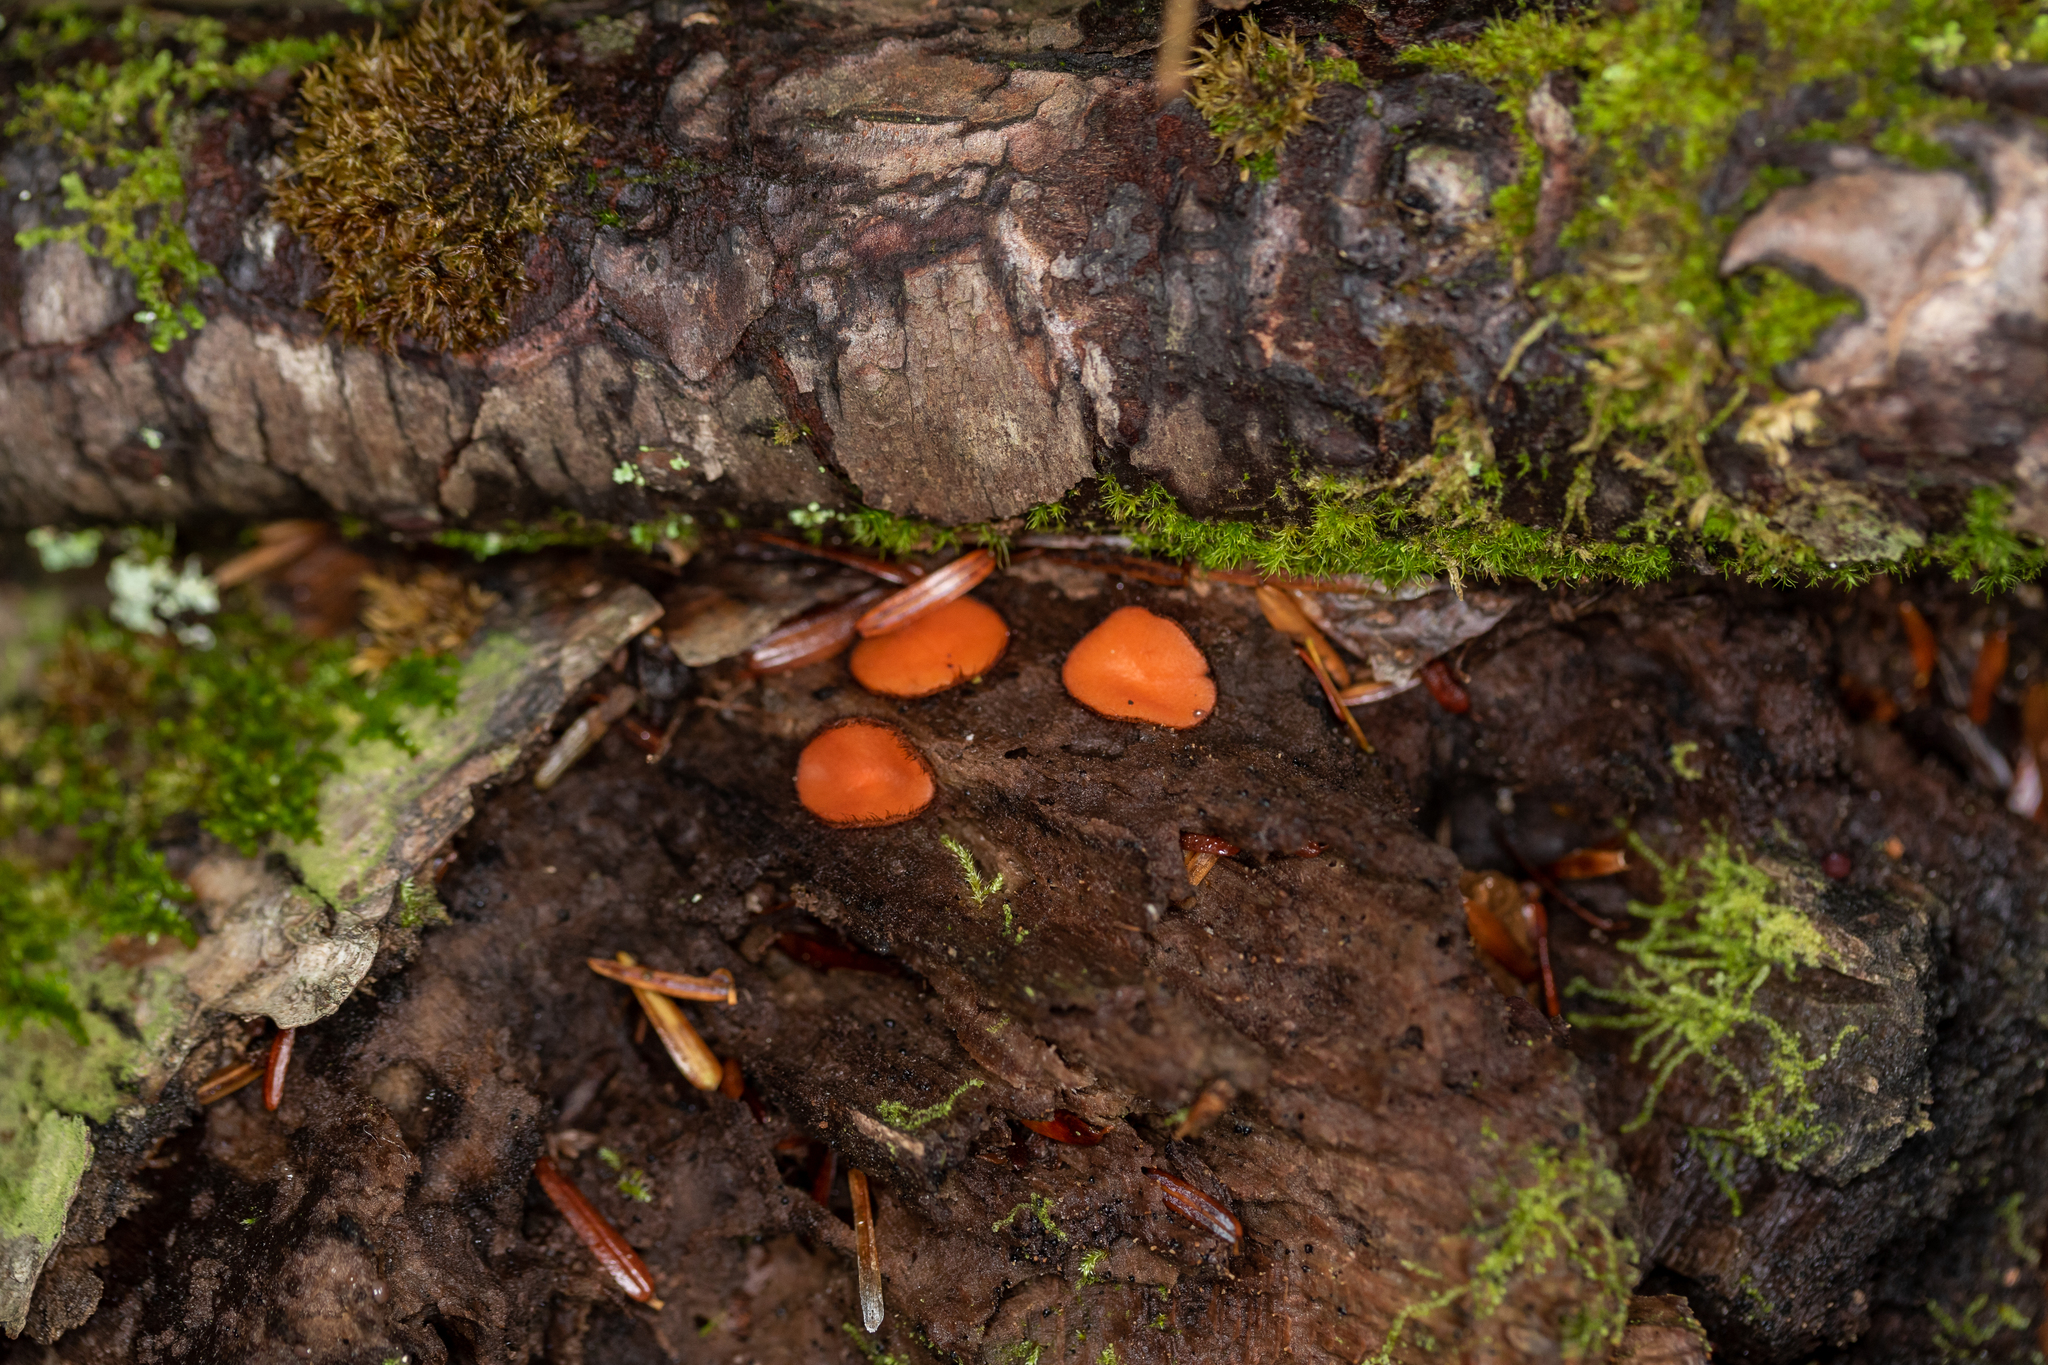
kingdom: Fungi
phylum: Ascomycota
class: Pezizomycetes
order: Pezizales
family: Pyronemataceae
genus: Scutellinia
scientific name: Scutellinia olivascens
